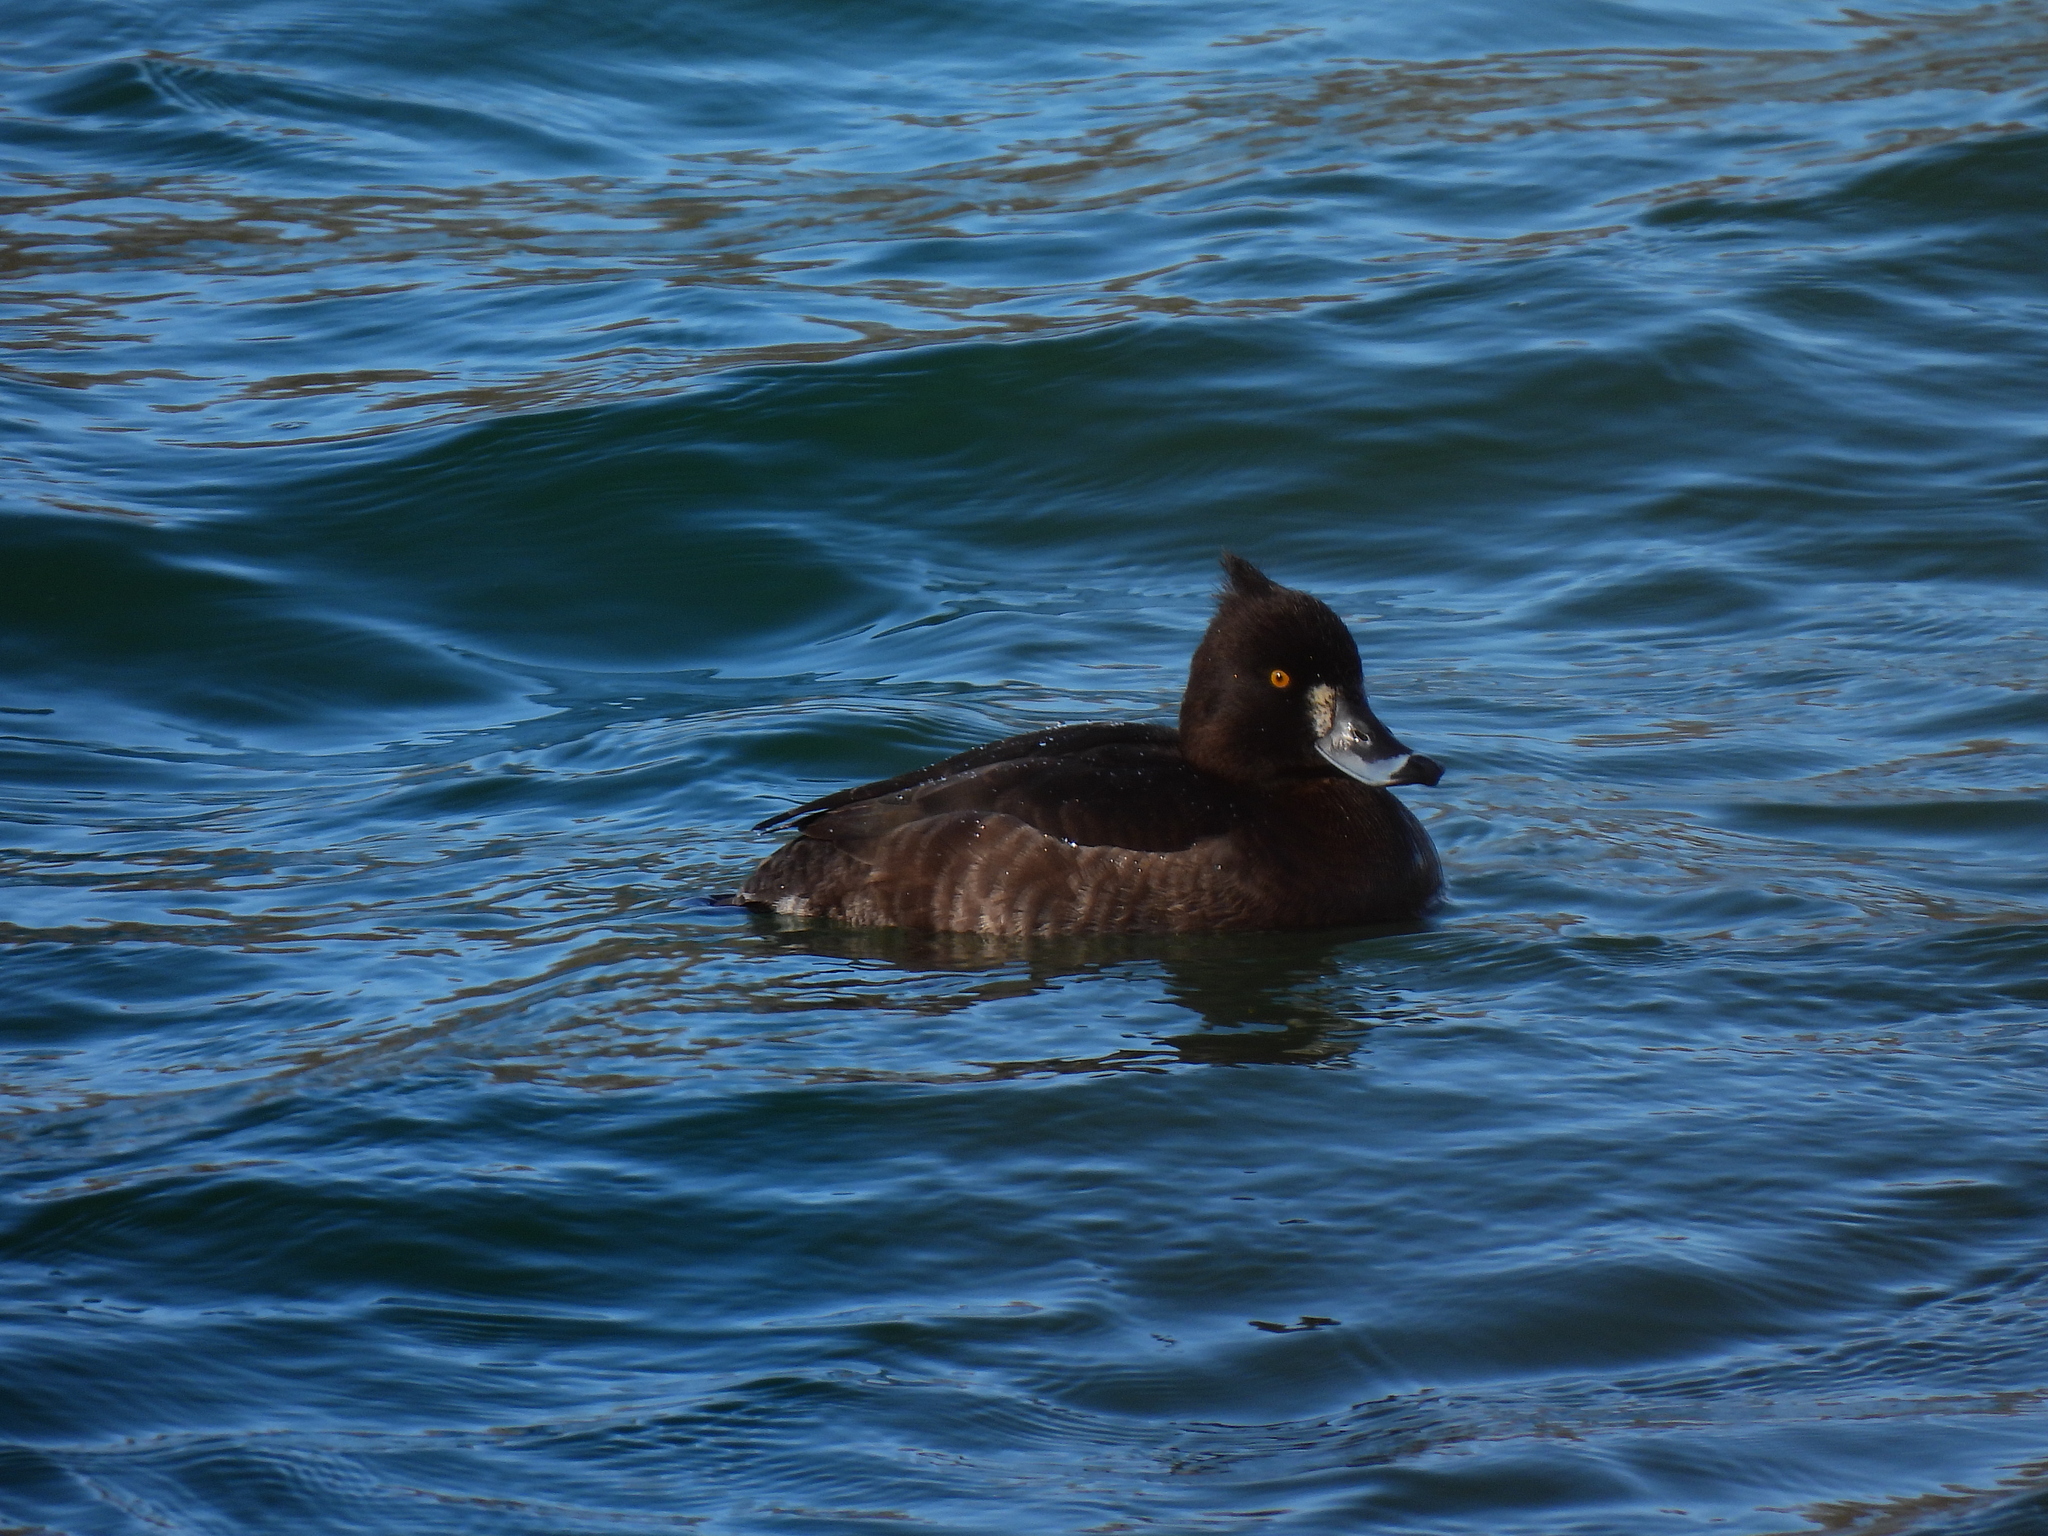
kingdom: Animalia
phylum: Chordata
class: Aves
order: Anseriformes
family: Anatidae
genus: Aythya
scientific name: Aythya fuligula
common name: Tufted duck
